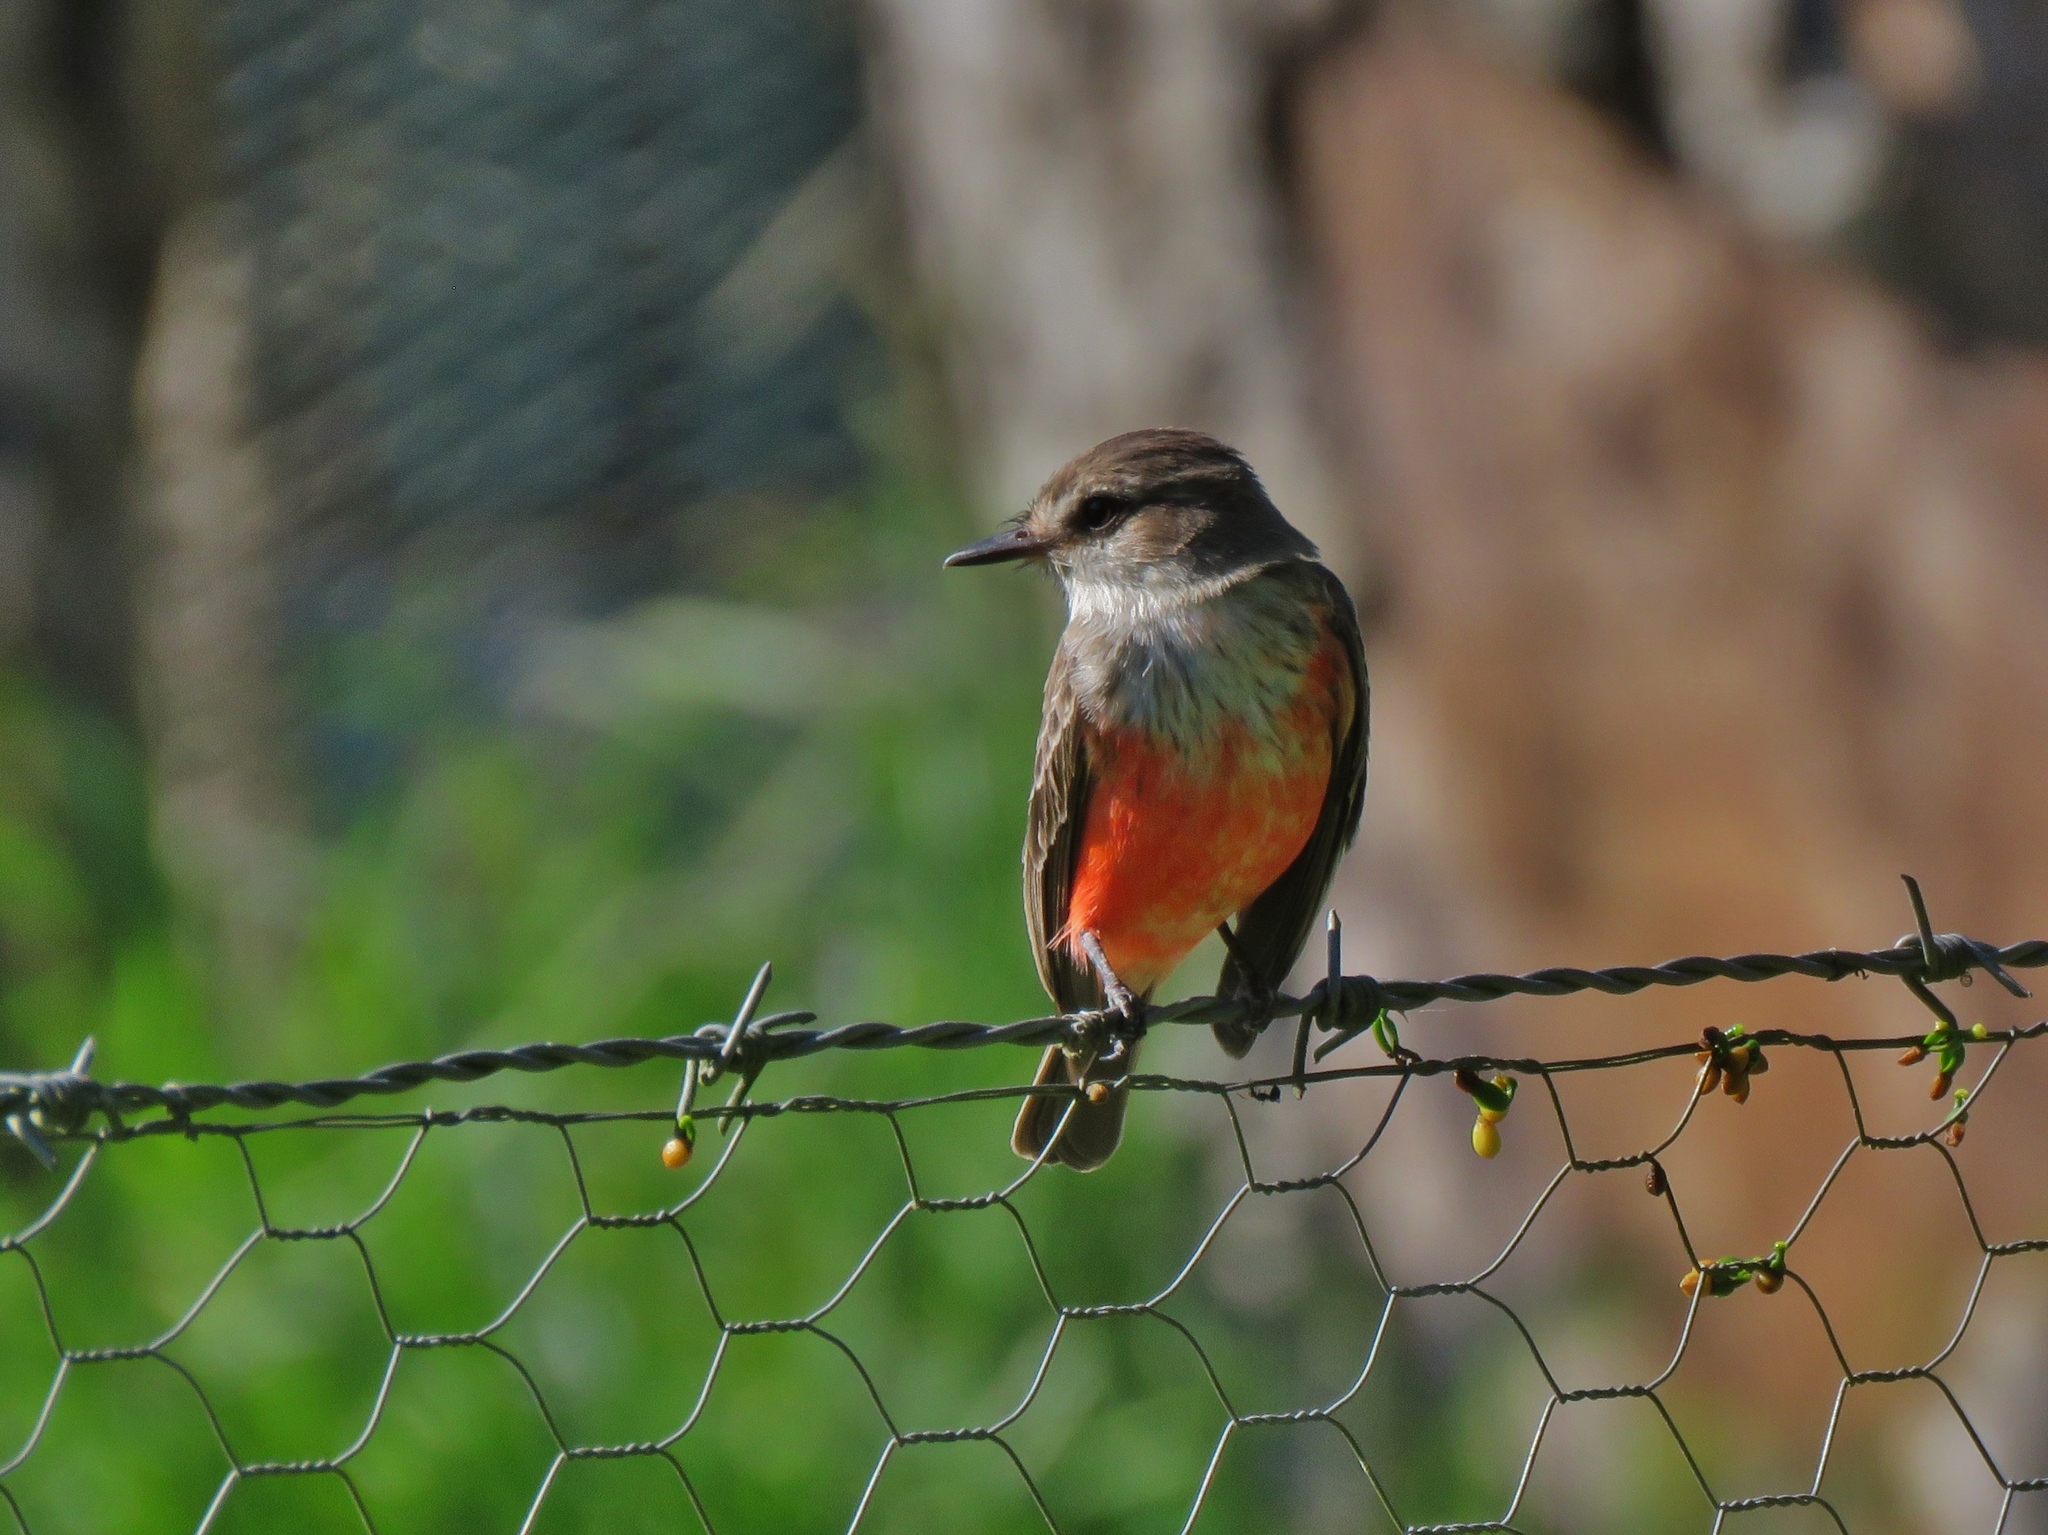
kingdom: Animalia
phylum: Chordata
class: Aves
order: Passeriformes
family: Tyrannidae
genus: Pyrocephalus
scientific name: Pyrocephalus rubinus
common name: Vermilion flycatcher
